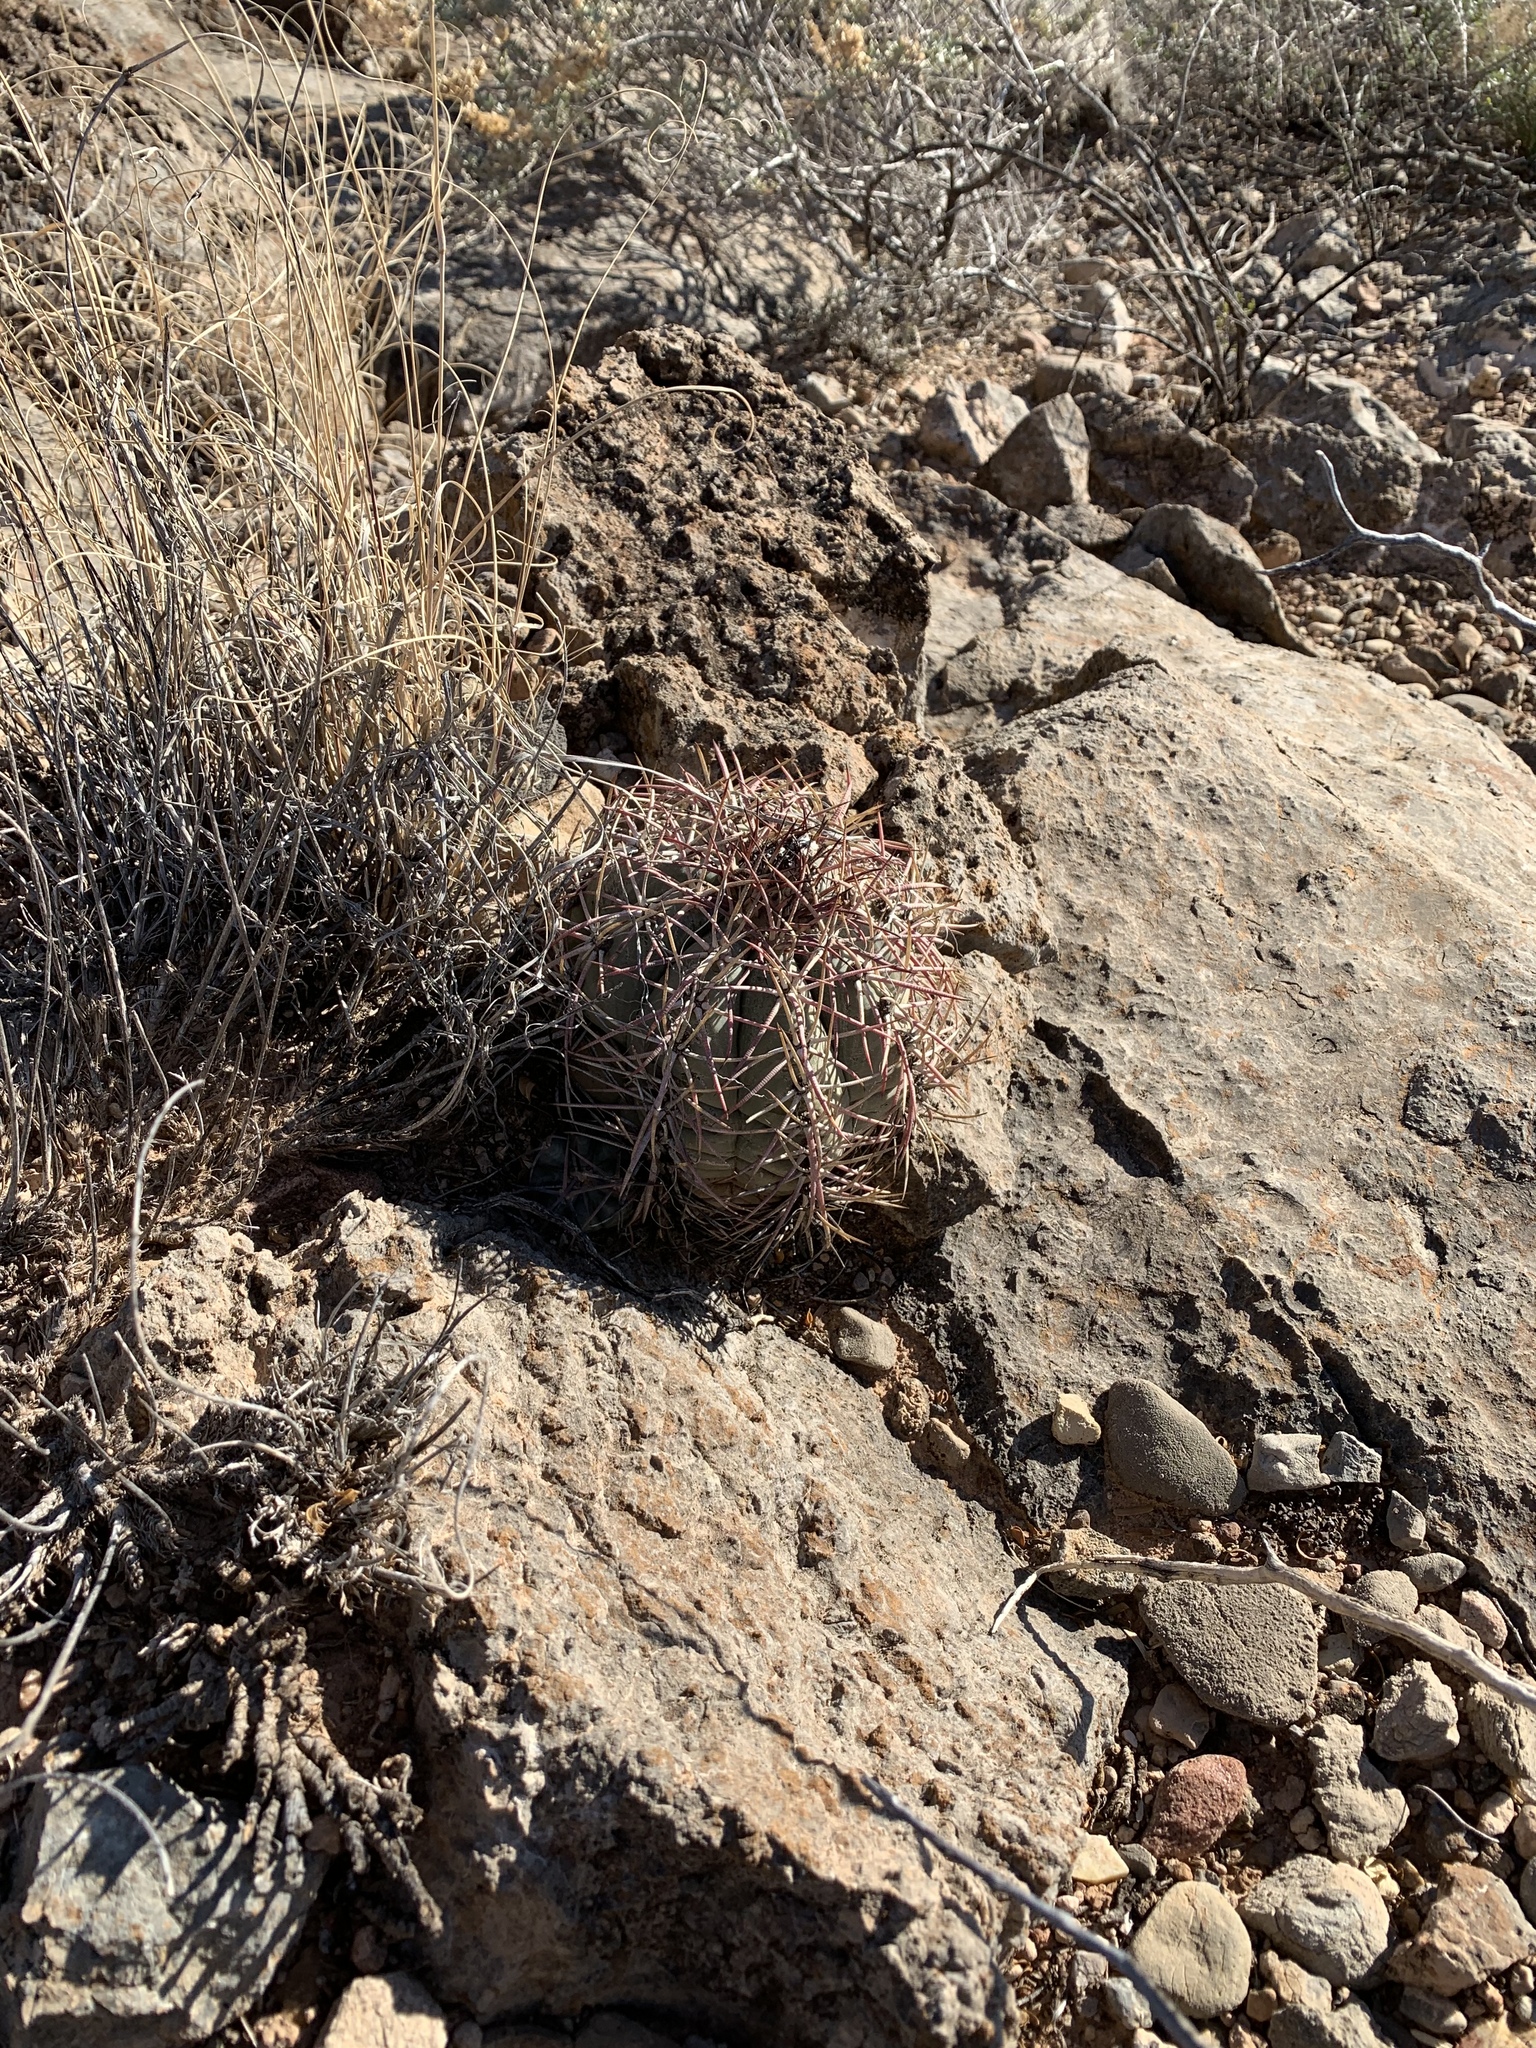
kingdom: Plantae
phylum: Tracheophyta
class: Magnoliopsida
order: Caryophyllales
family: Cactaceae
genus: Echinocactus
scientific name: Echinocactus horizonthalonius
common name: Devilshead
